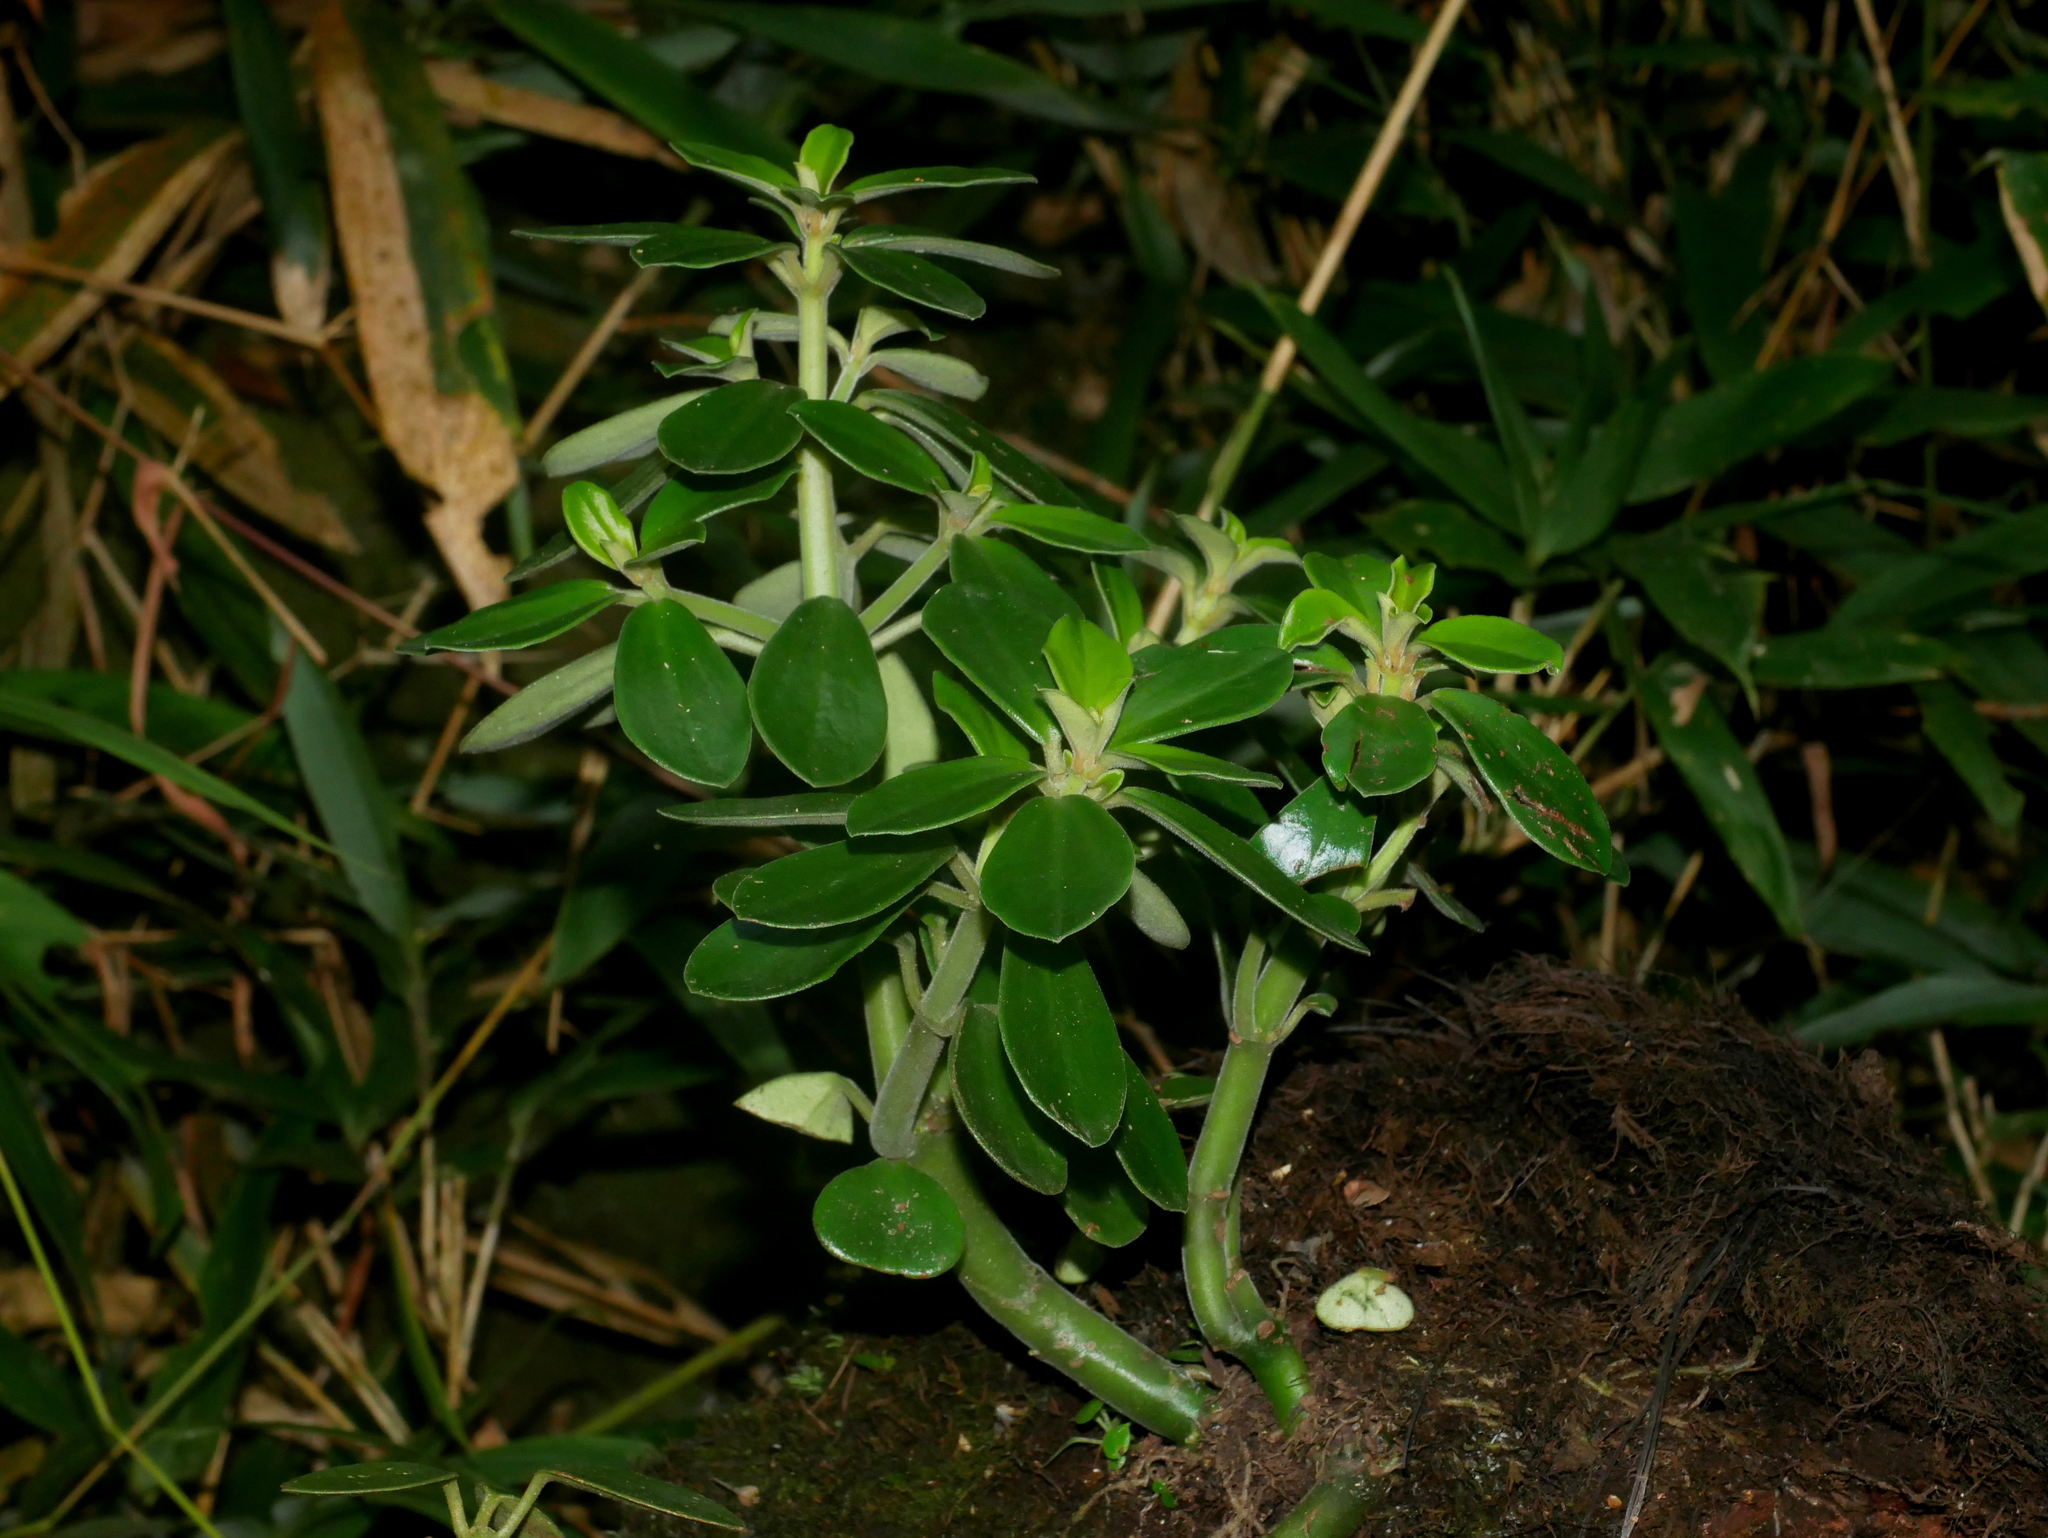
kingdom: Plantae
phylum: Tracheophyta
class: Magnoliopsida
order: Piperales
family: Piperaceae
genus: Peperomia
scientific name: Peperomia japonica
